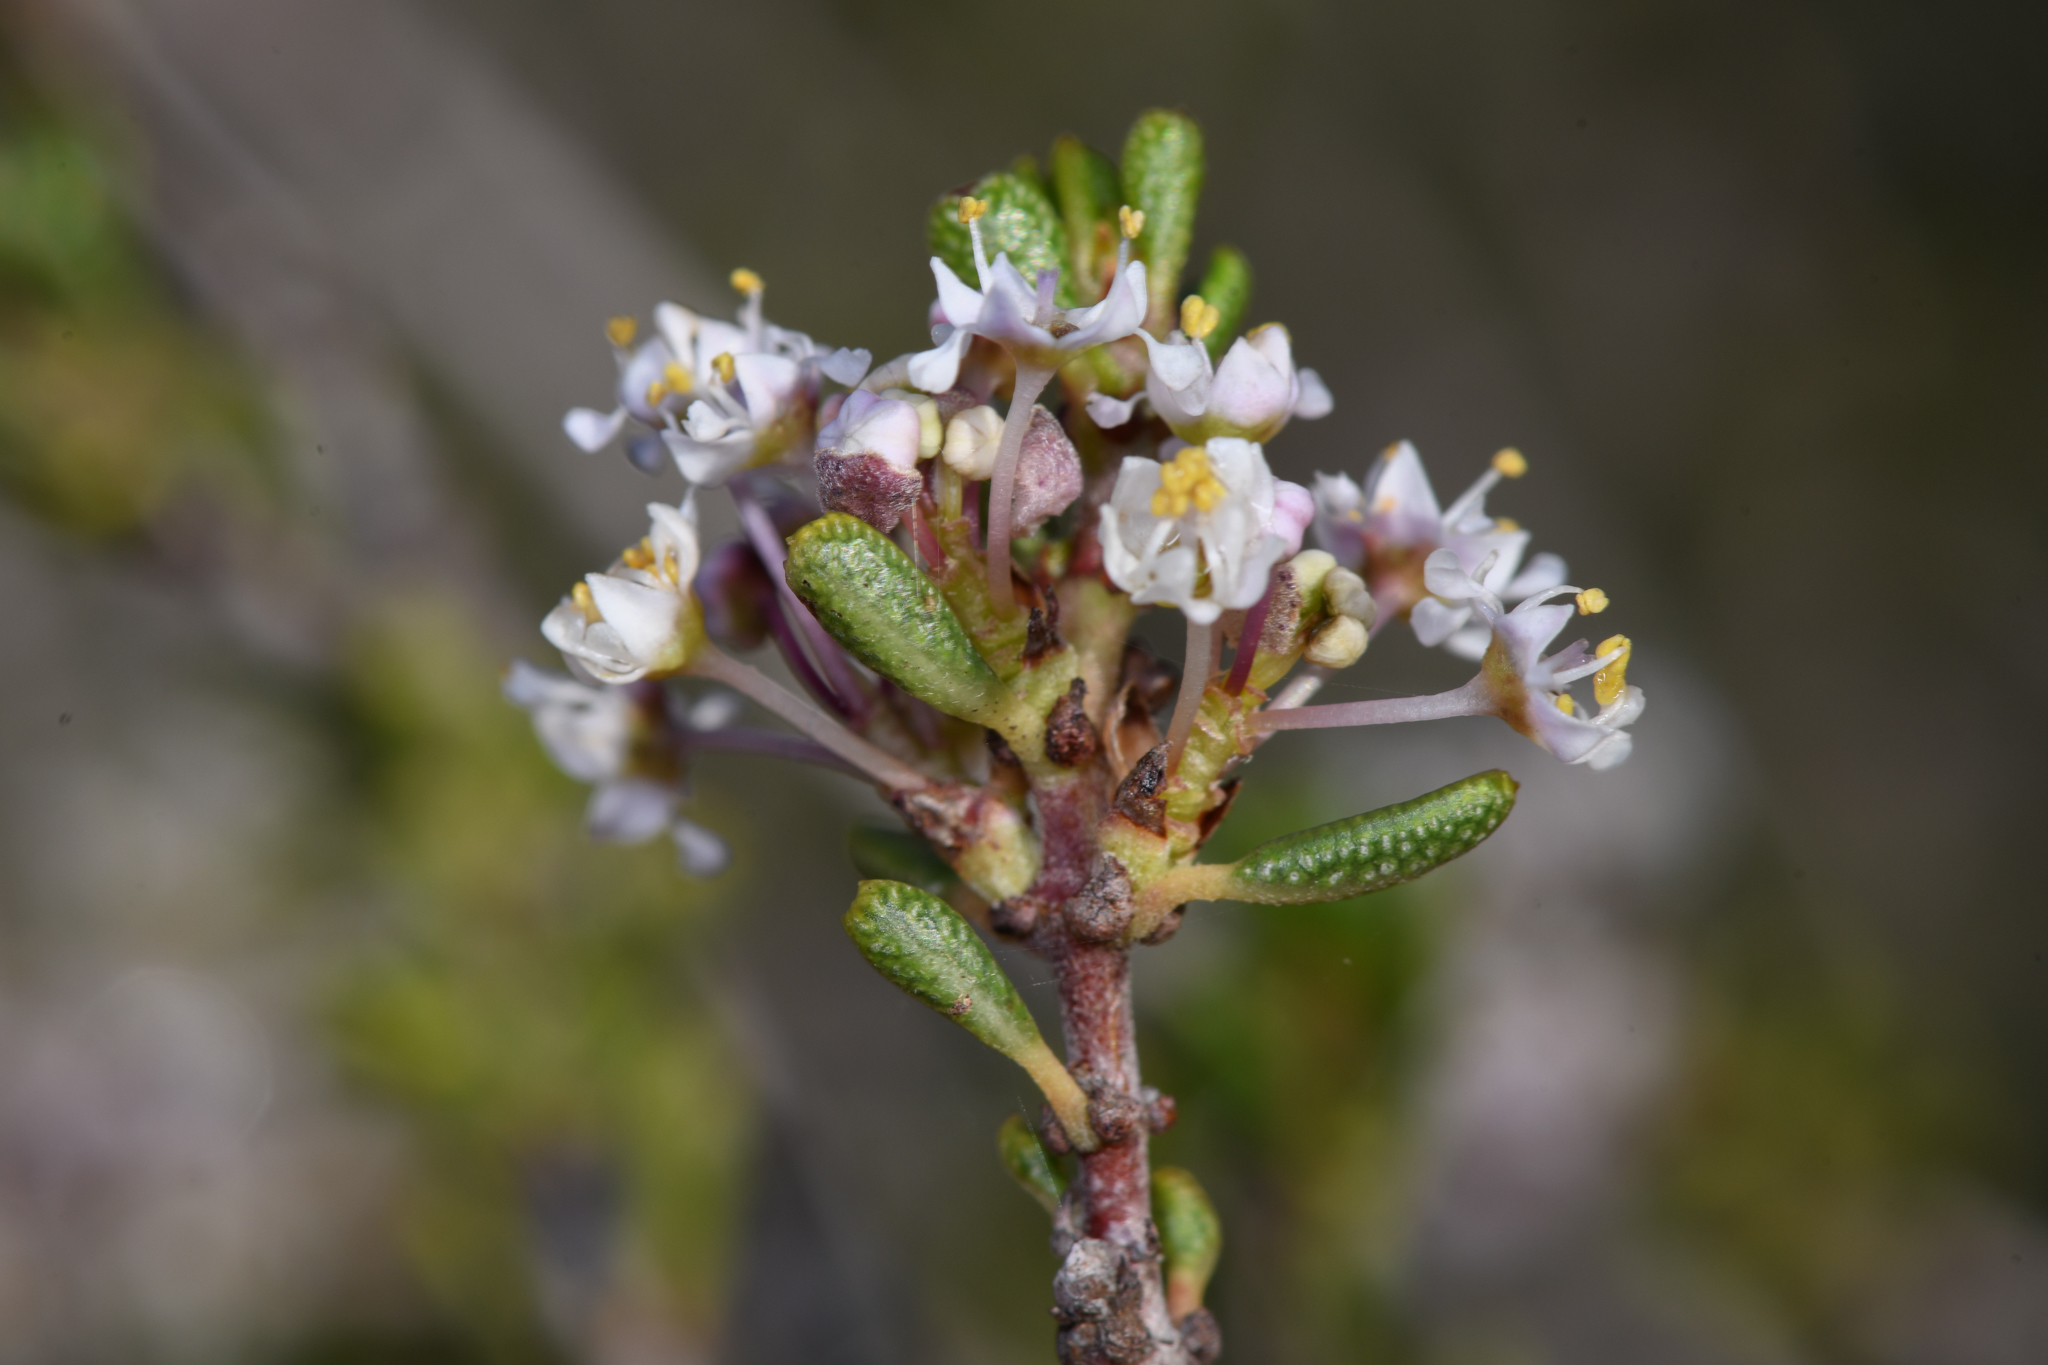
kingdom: Plantae
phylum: Tracheophyta
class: Magnoliopsida
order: Rosales
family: Rhamnaceae
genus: Ceanothus
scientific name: Ceanothus ophiochilus
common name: Vail lake ceanothus
